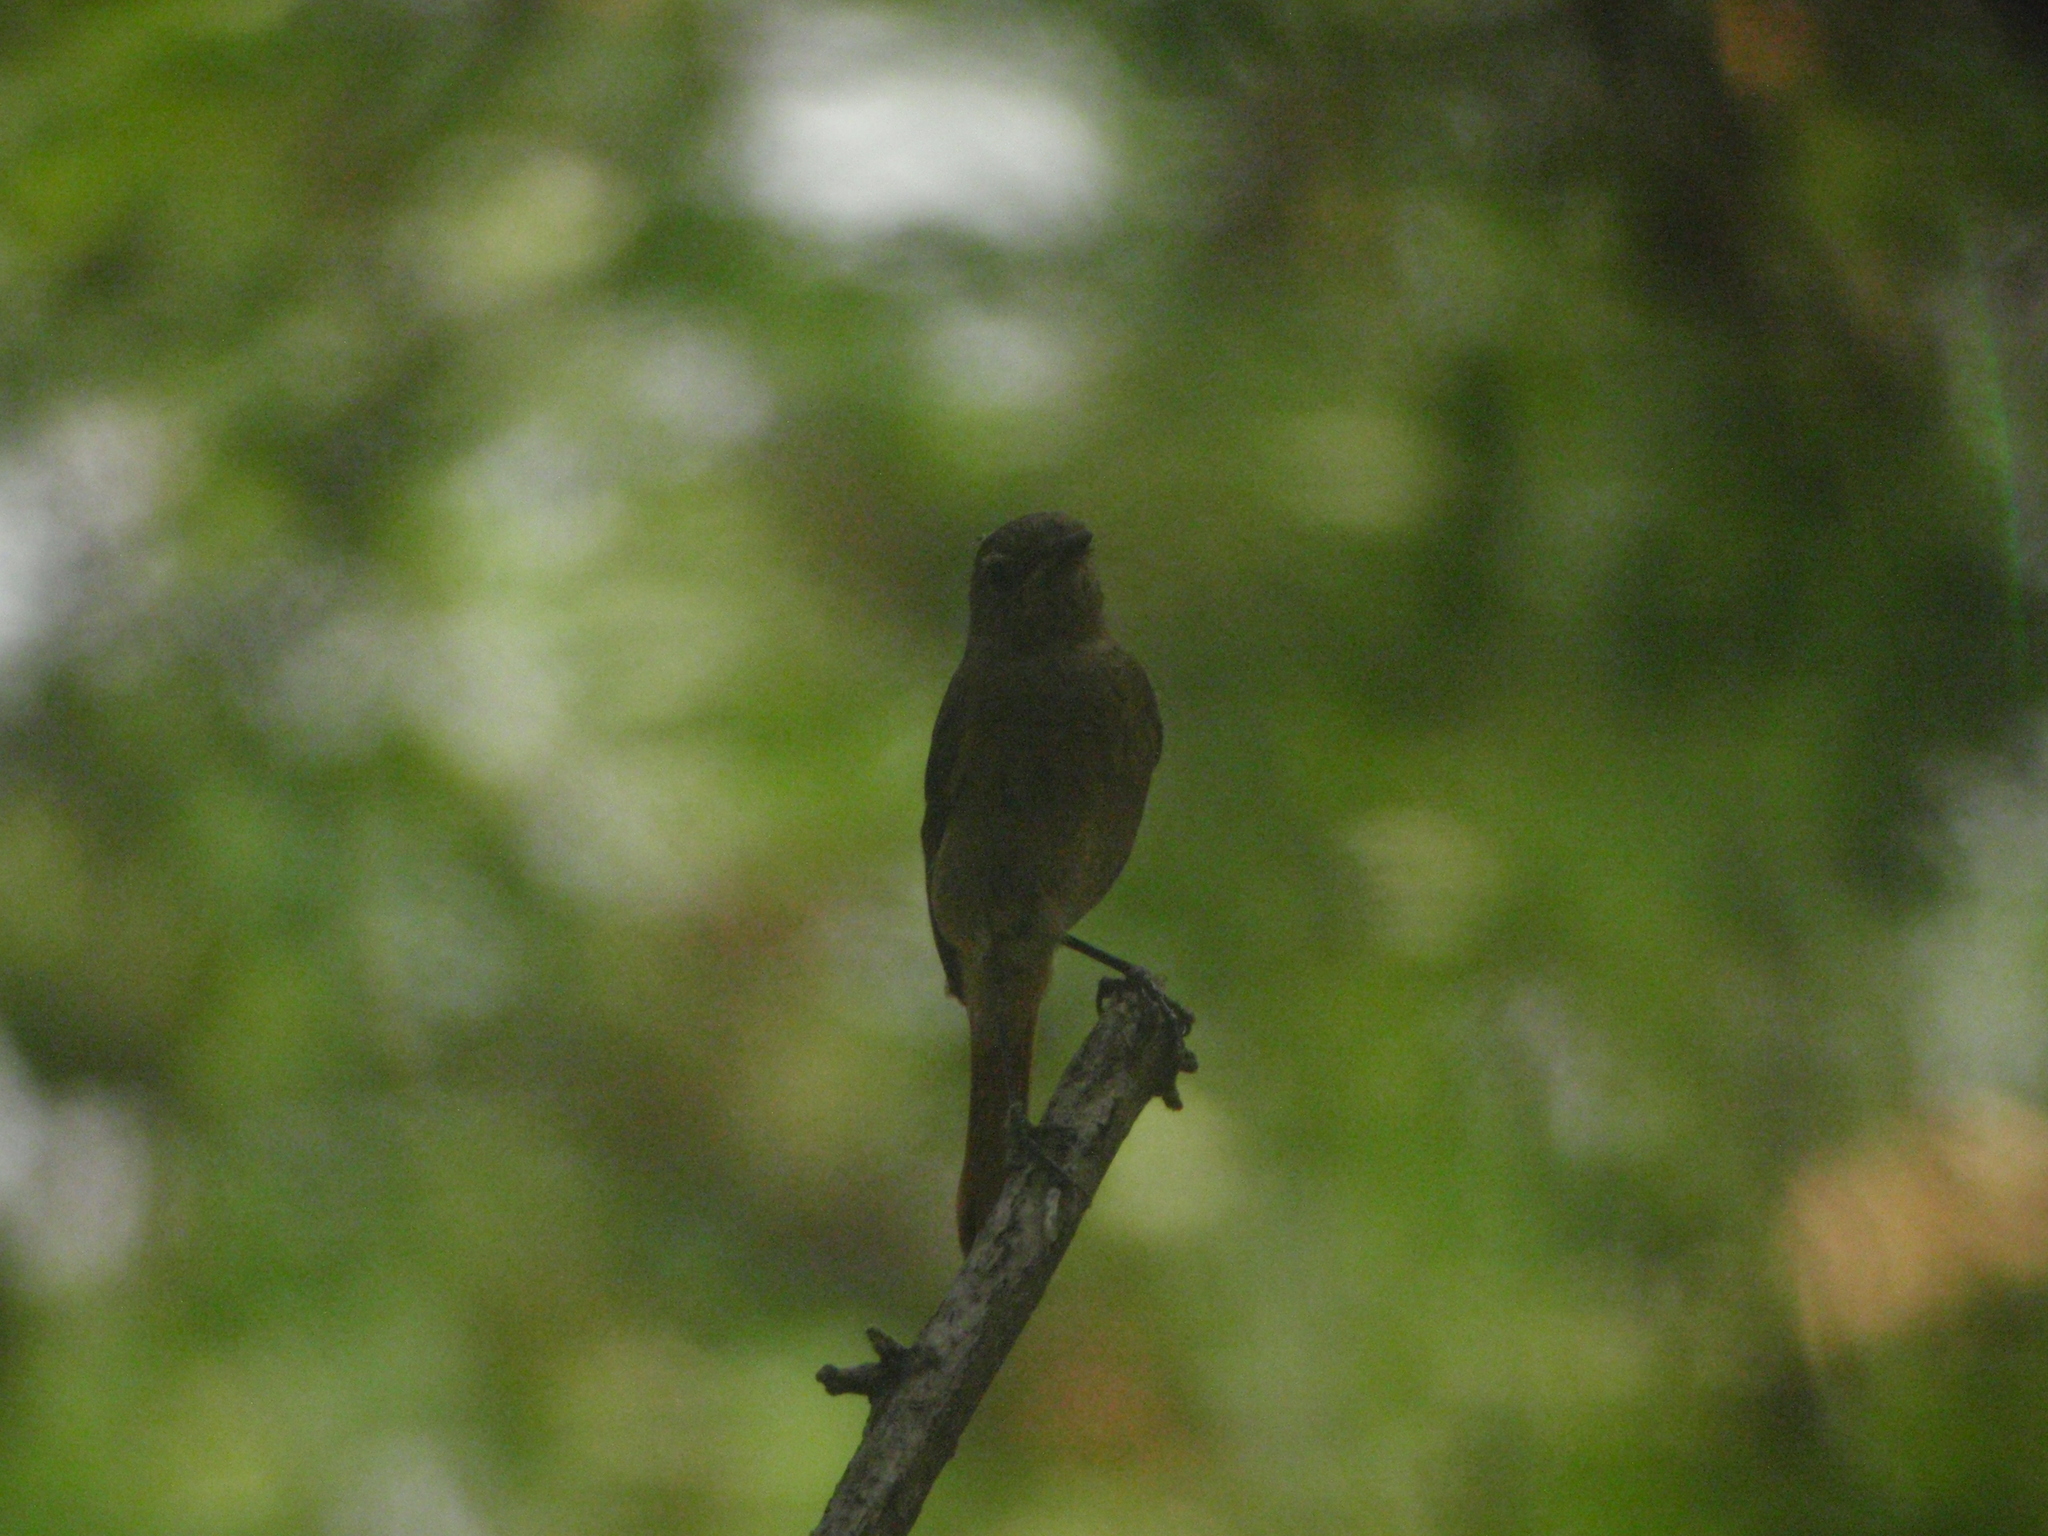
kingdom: Animalia
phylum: Chordata
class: Aves
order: Passeriformes
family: Muscicapidae
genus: Phoenicurus
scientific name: Phoenicurus auroreus
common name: Daurian redstart
